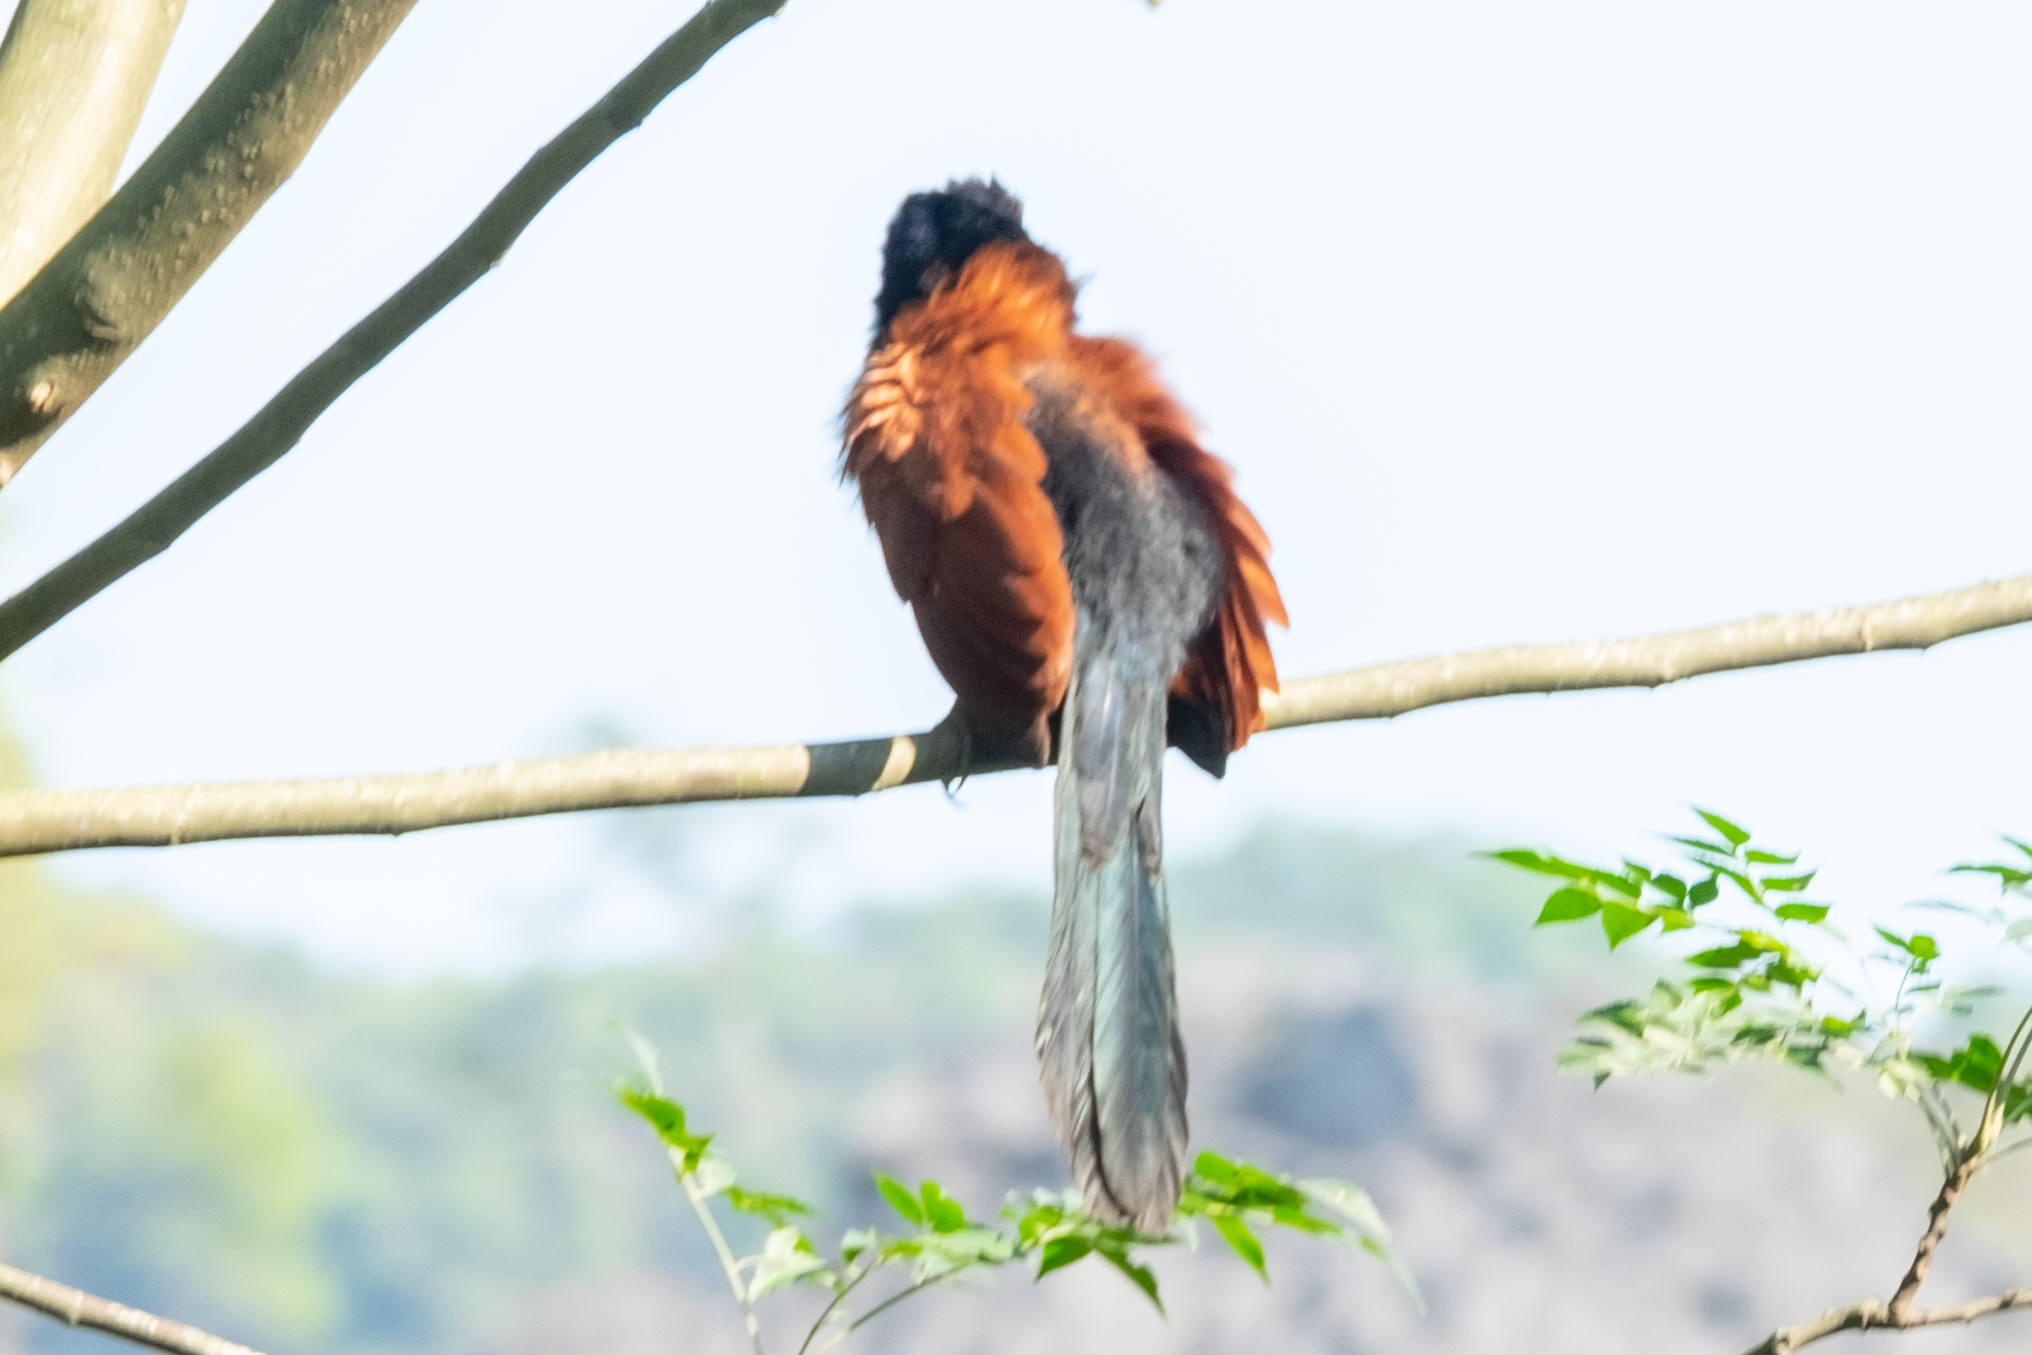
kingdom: Animalia
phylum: Chordata
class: Aves
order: Cuculiformes
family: Cuculidae
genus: Centropus
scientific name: Centropus sinensis
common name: Greater coucal
